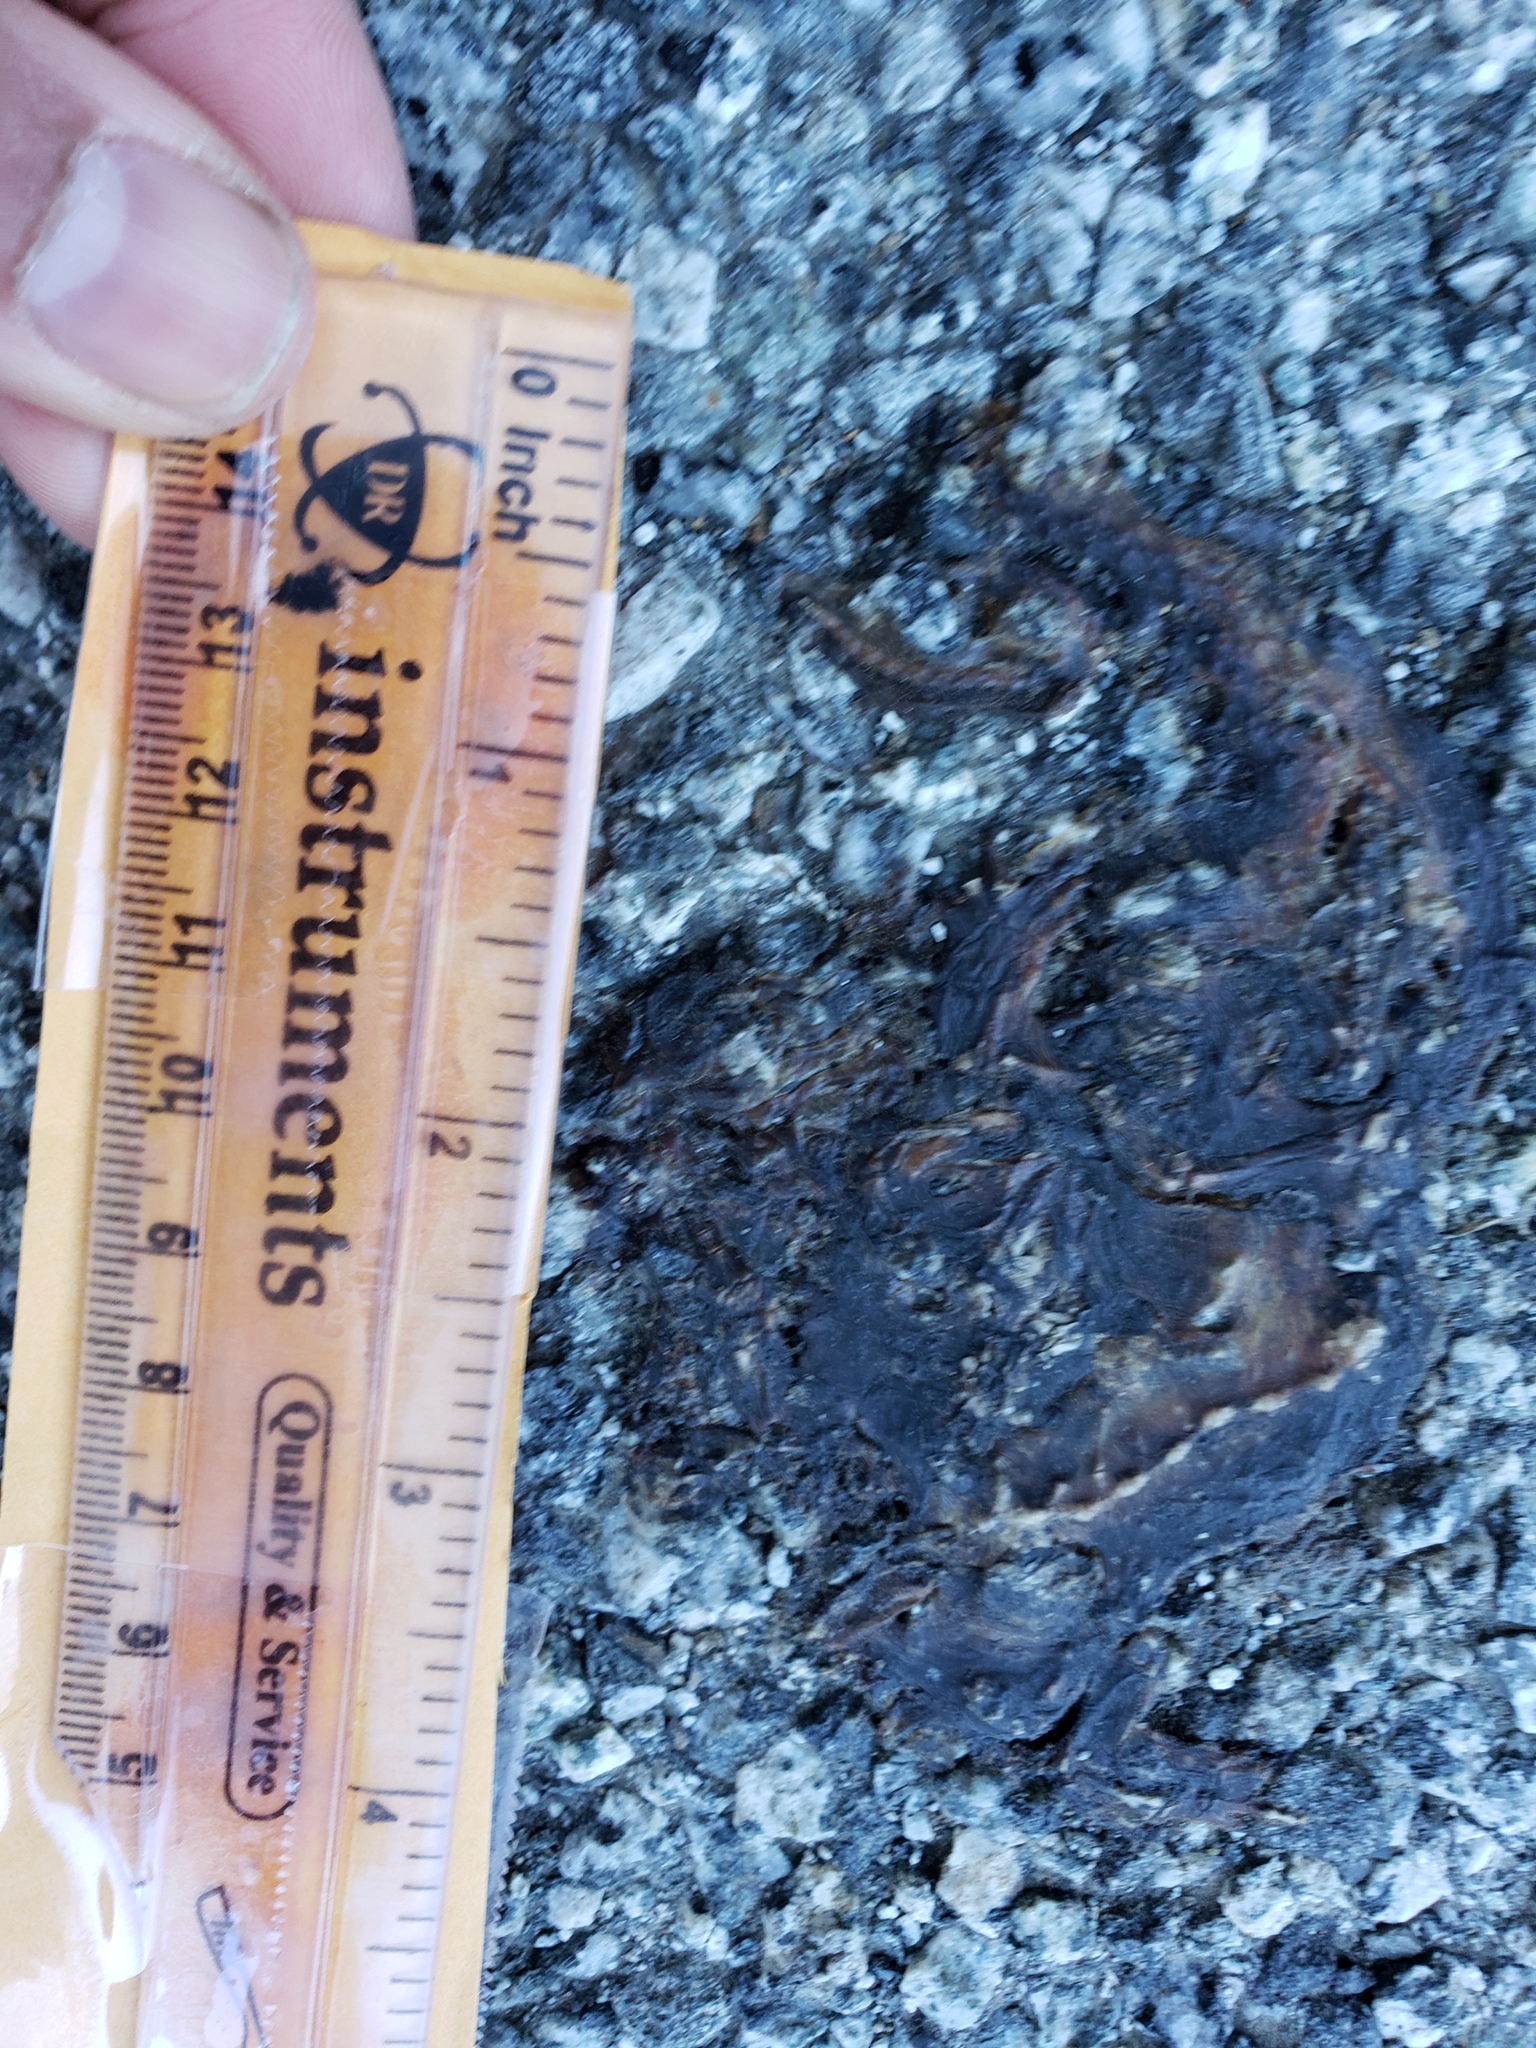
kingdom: Animalia
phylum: Chordata
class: Amphibia
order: Caudata
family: Salamandridae
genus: Taricha
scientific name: Taricha
